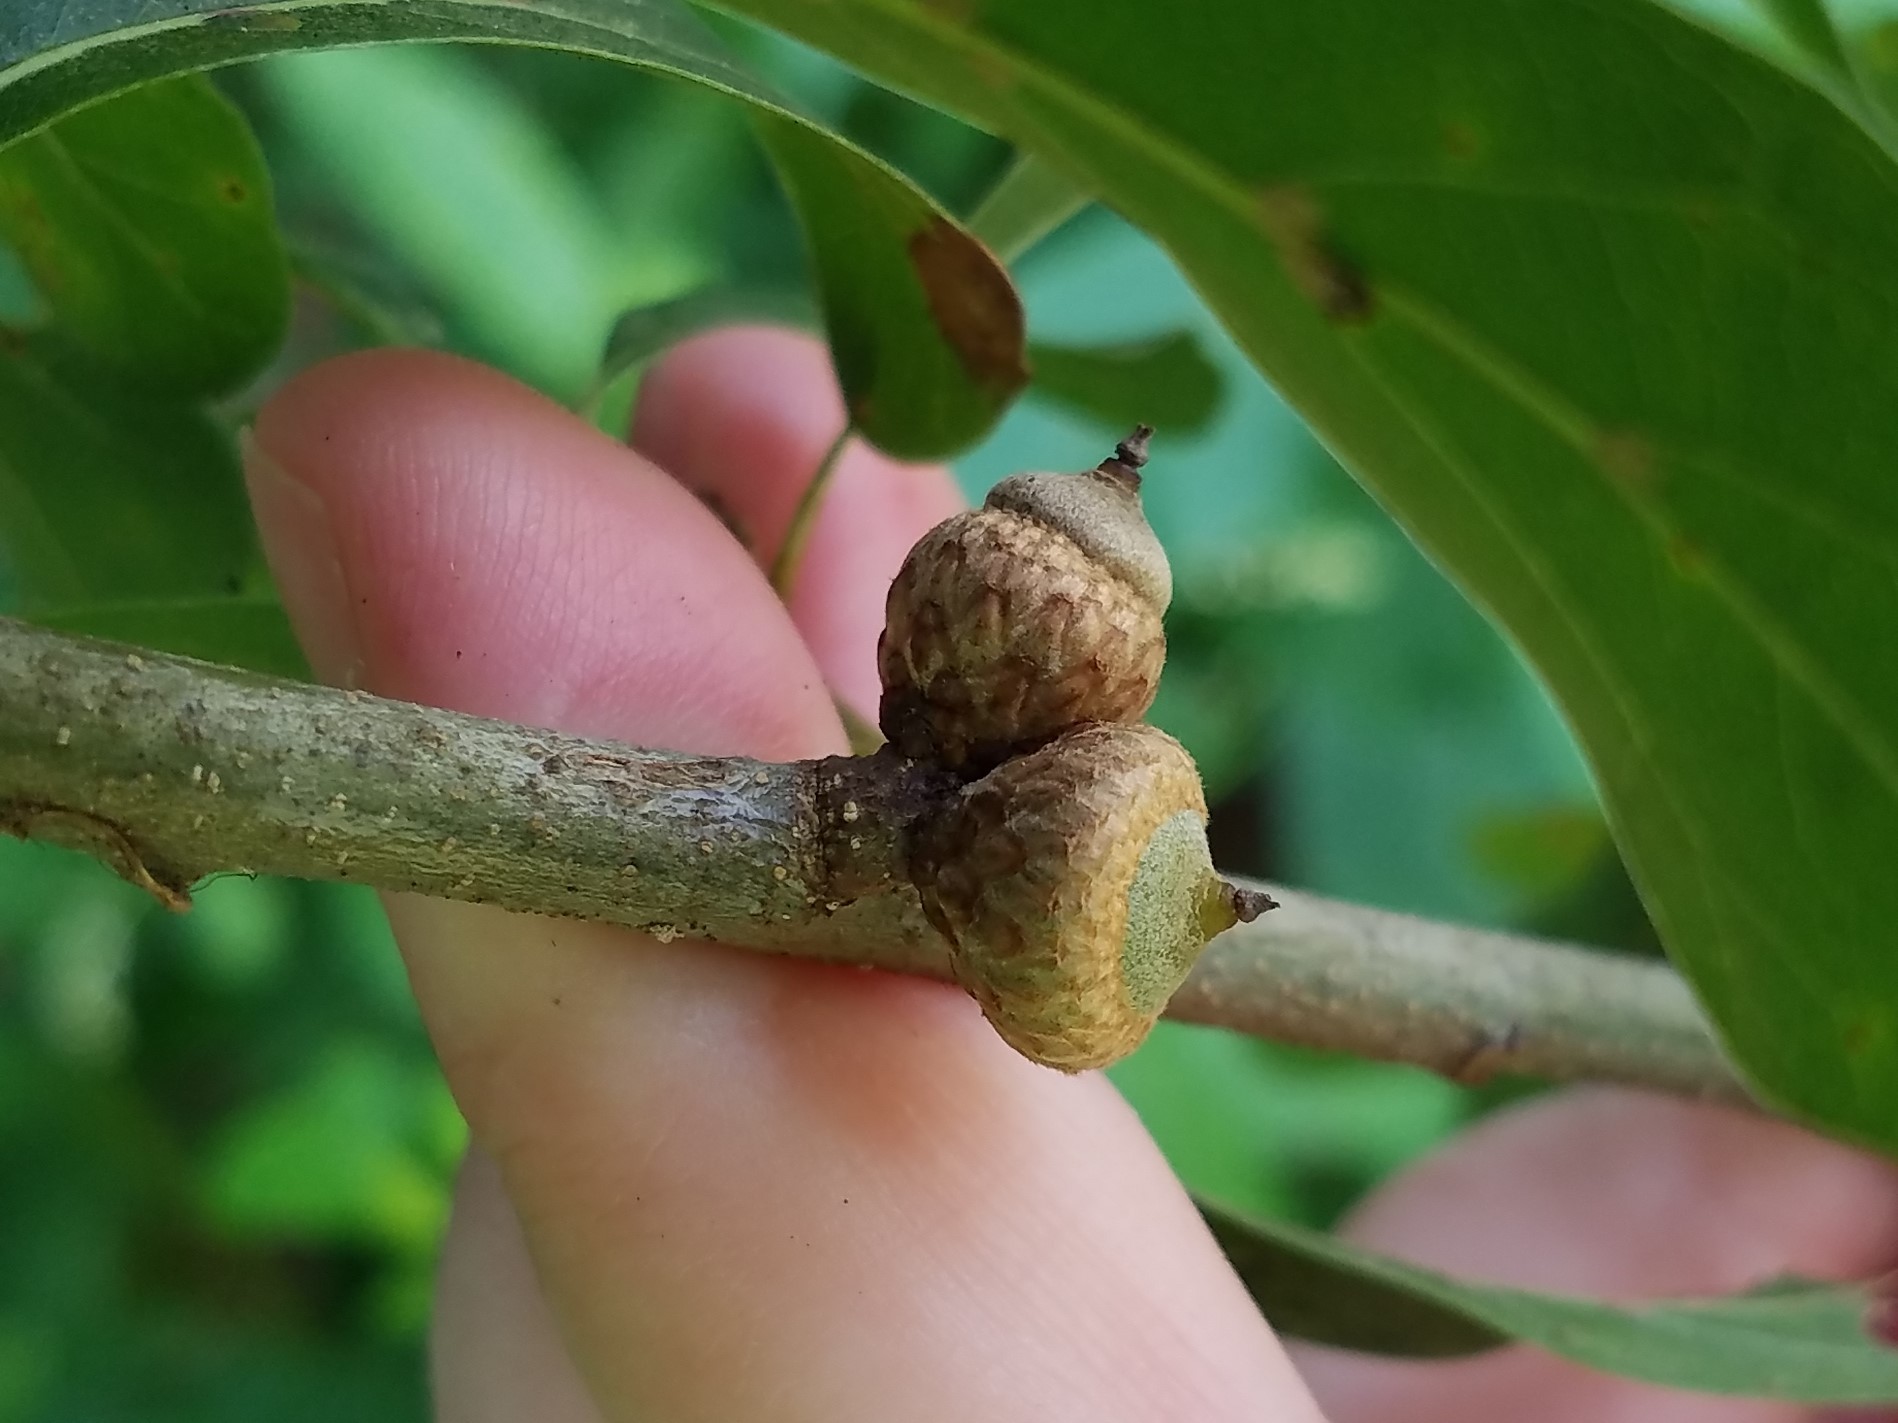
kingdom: Plantae
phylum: Tracheophyta
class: Magnoliopsida
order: Fagales
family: Fagaceae
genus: Quercus
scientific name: Quercus nigra
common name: Water oak
